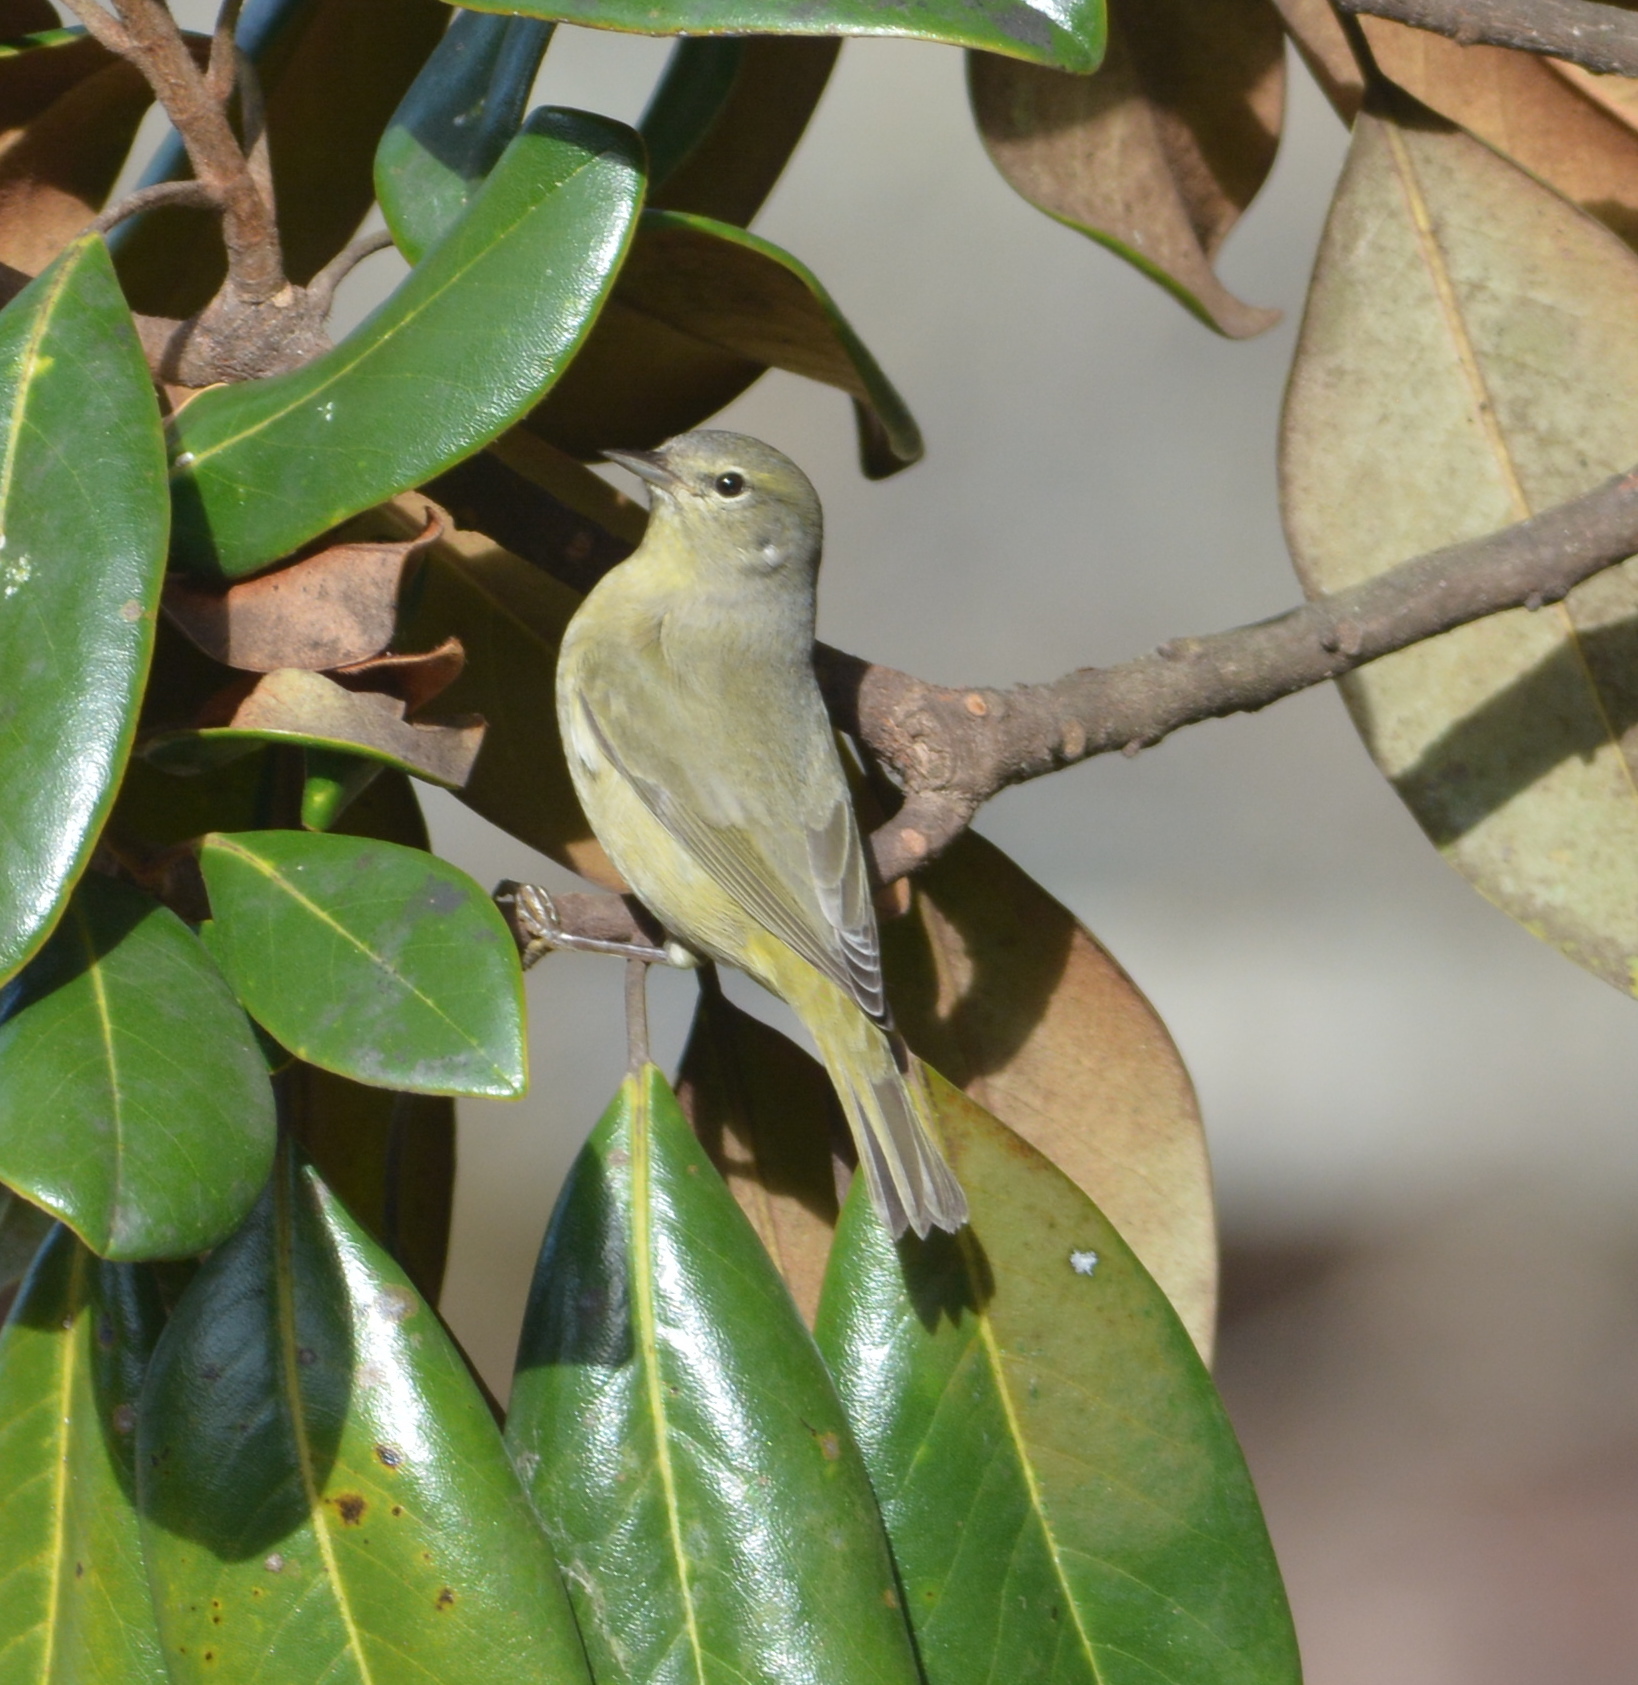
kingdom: Animalia
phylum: Chordata
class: Aves
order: Passeriformes
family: Parulidae
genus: Leiothlypis
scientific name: Leiothlypis celata
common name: Orange-crowned warbler
